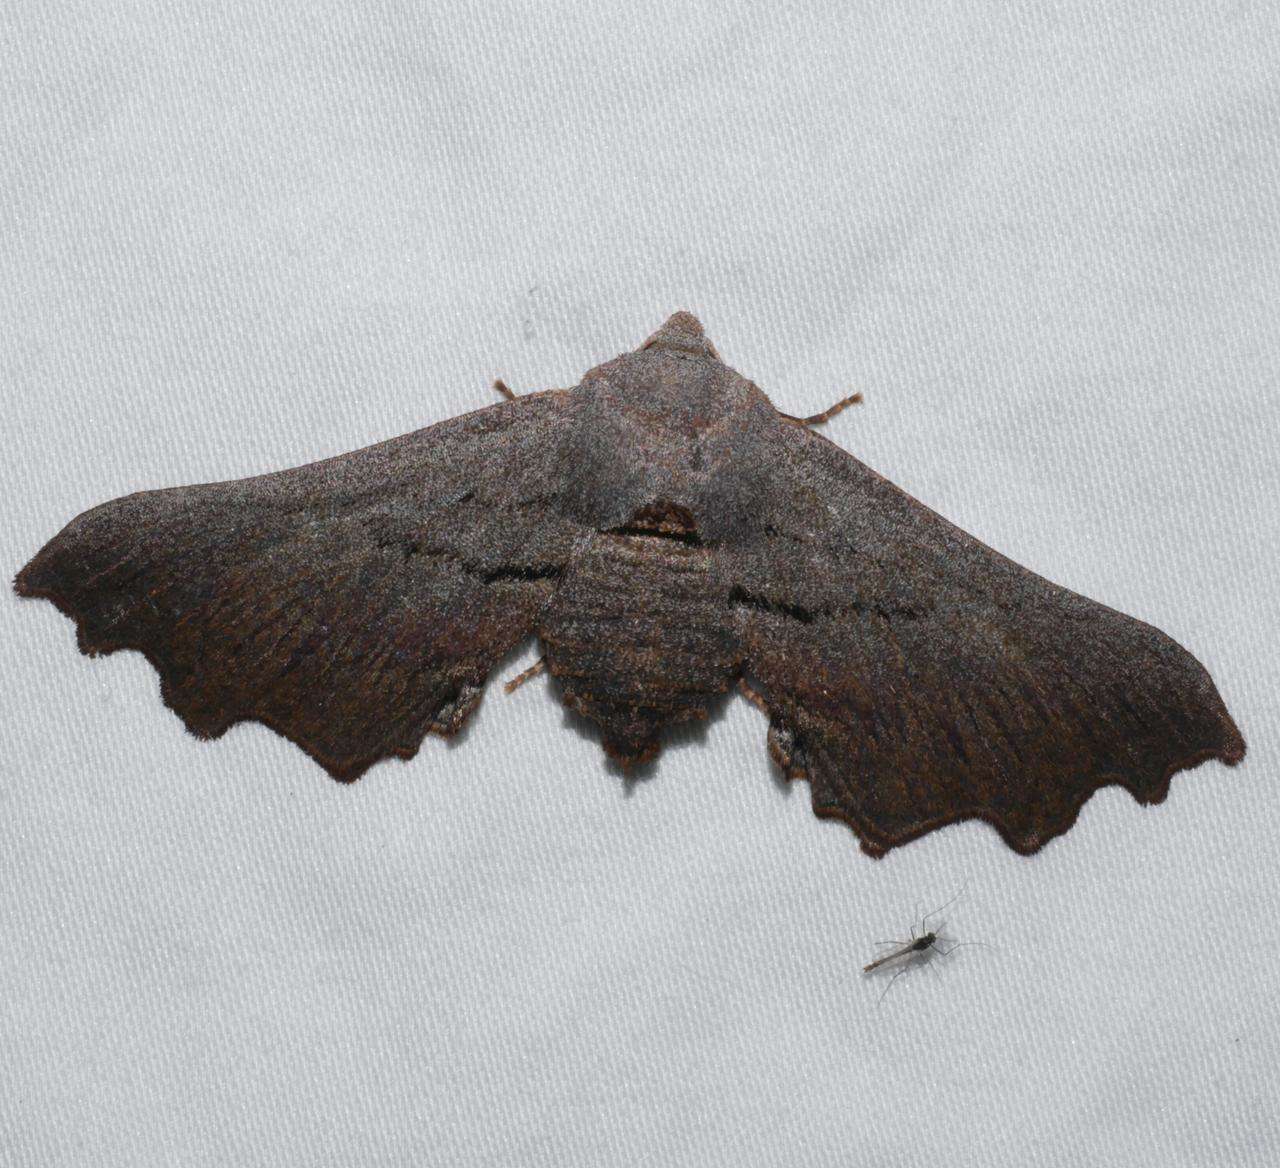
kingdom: Animalia
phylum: Arthropoda
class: Insecta
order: Lepidoptera
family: Geometridae
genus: Amphiclasta
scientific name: Amphiclasta lygaea
